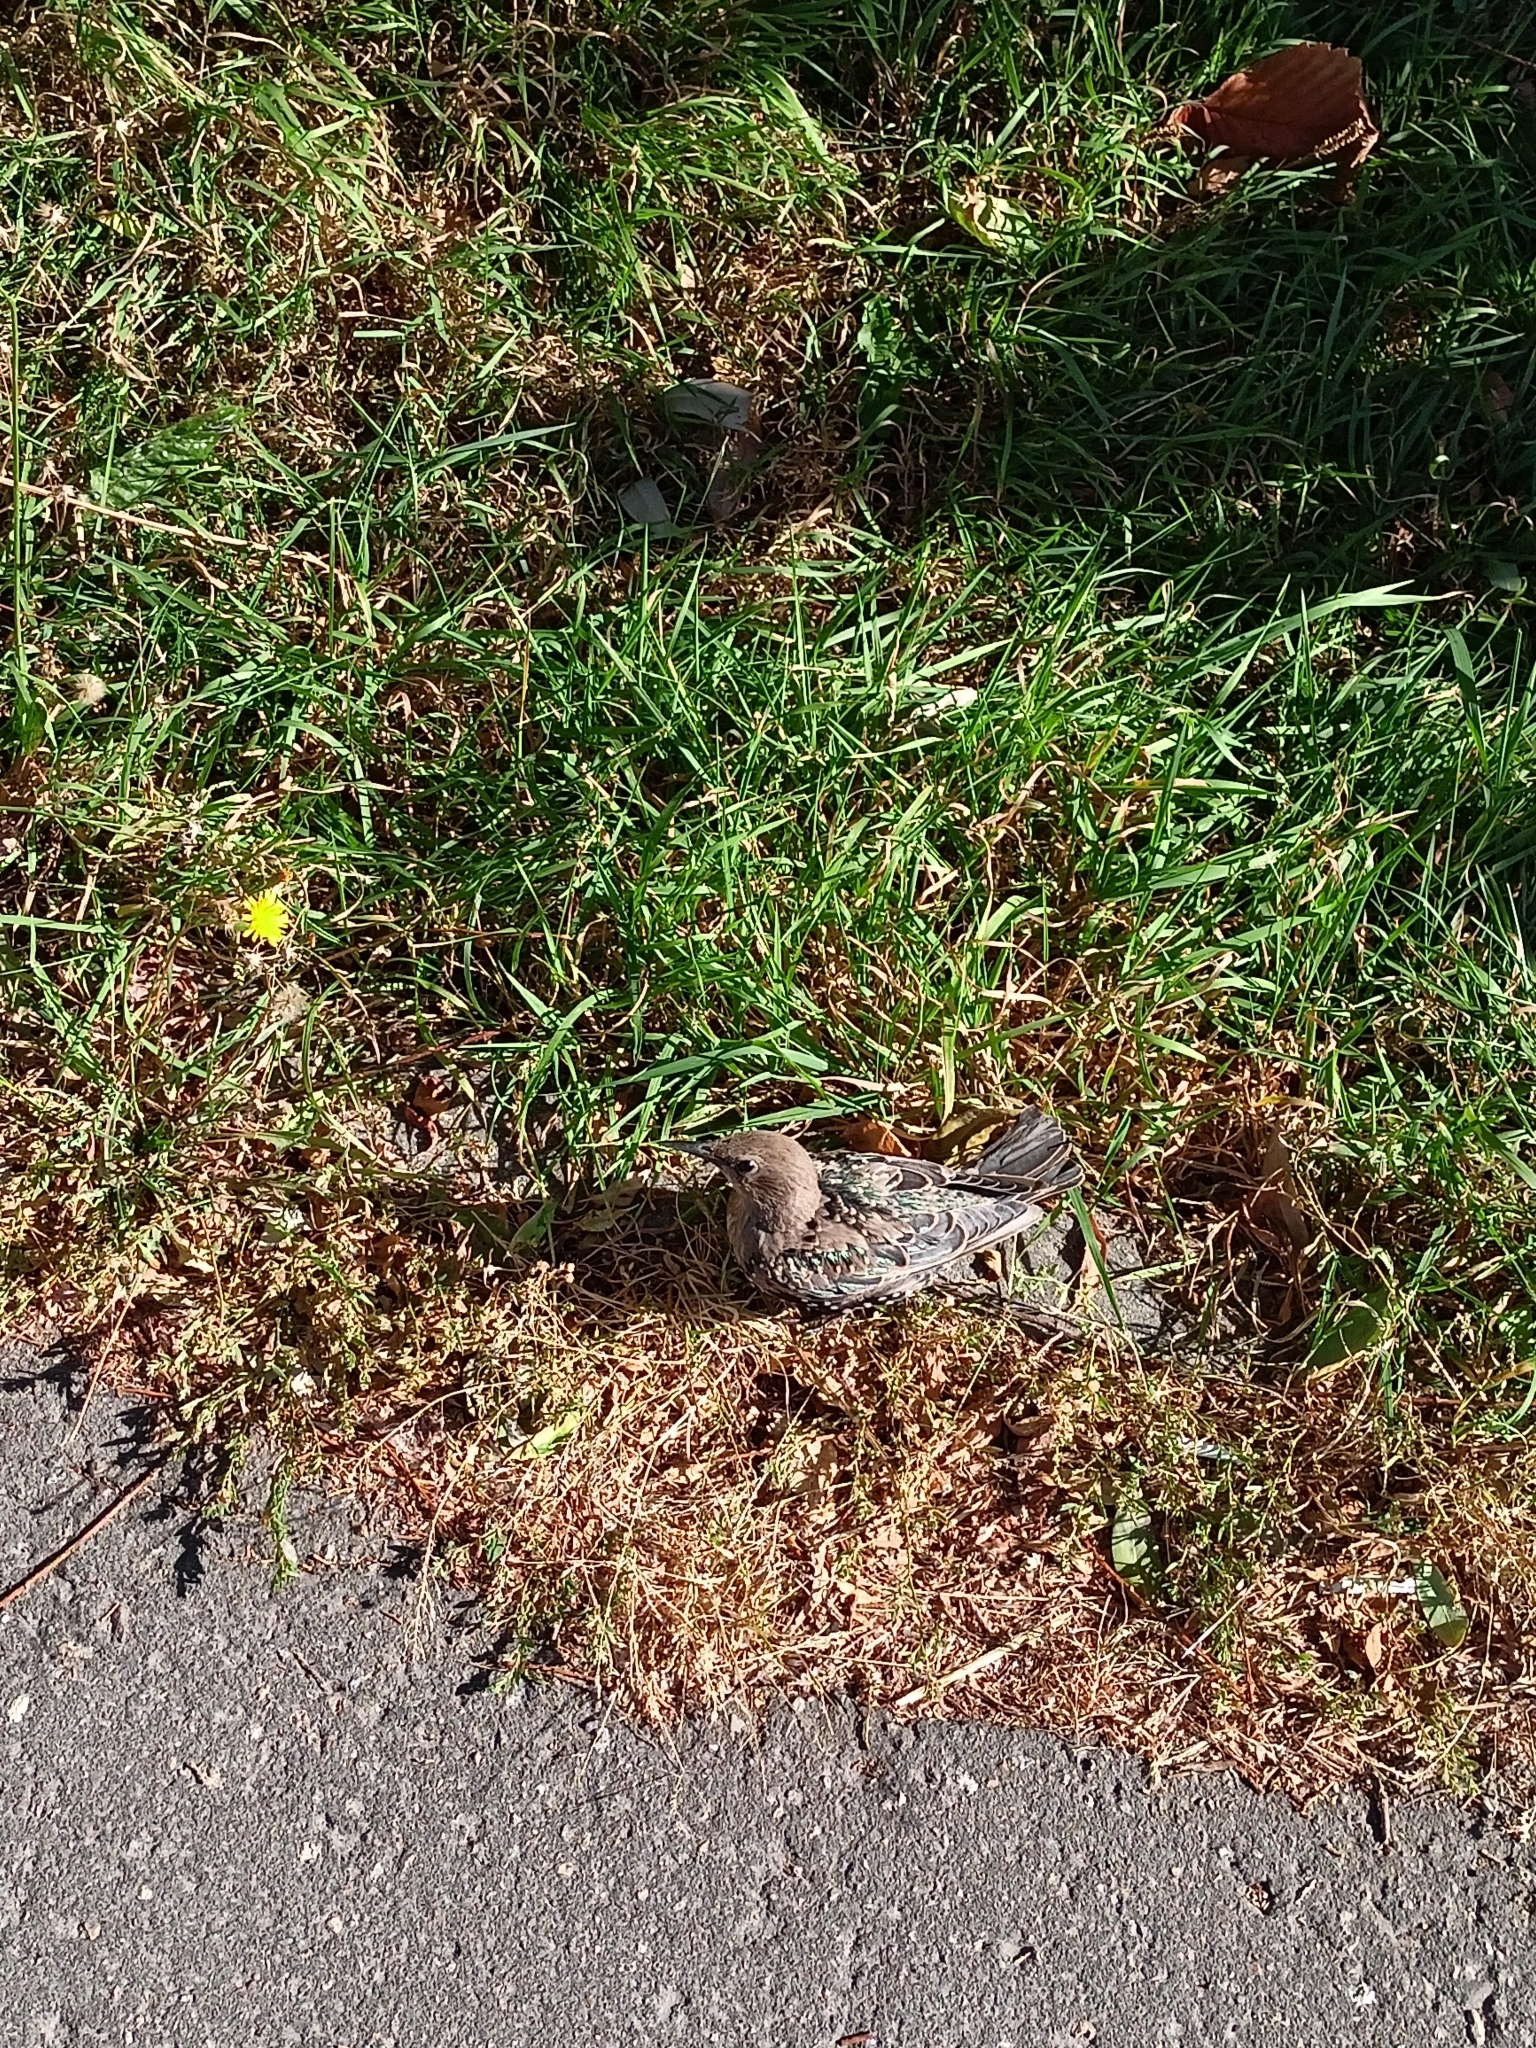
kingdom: Animalia
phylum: Chordata
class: Aves
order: Passeriformes
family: Sturnidae
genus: Sturnus
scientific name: Sturnus vulgaris
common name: Common starling
